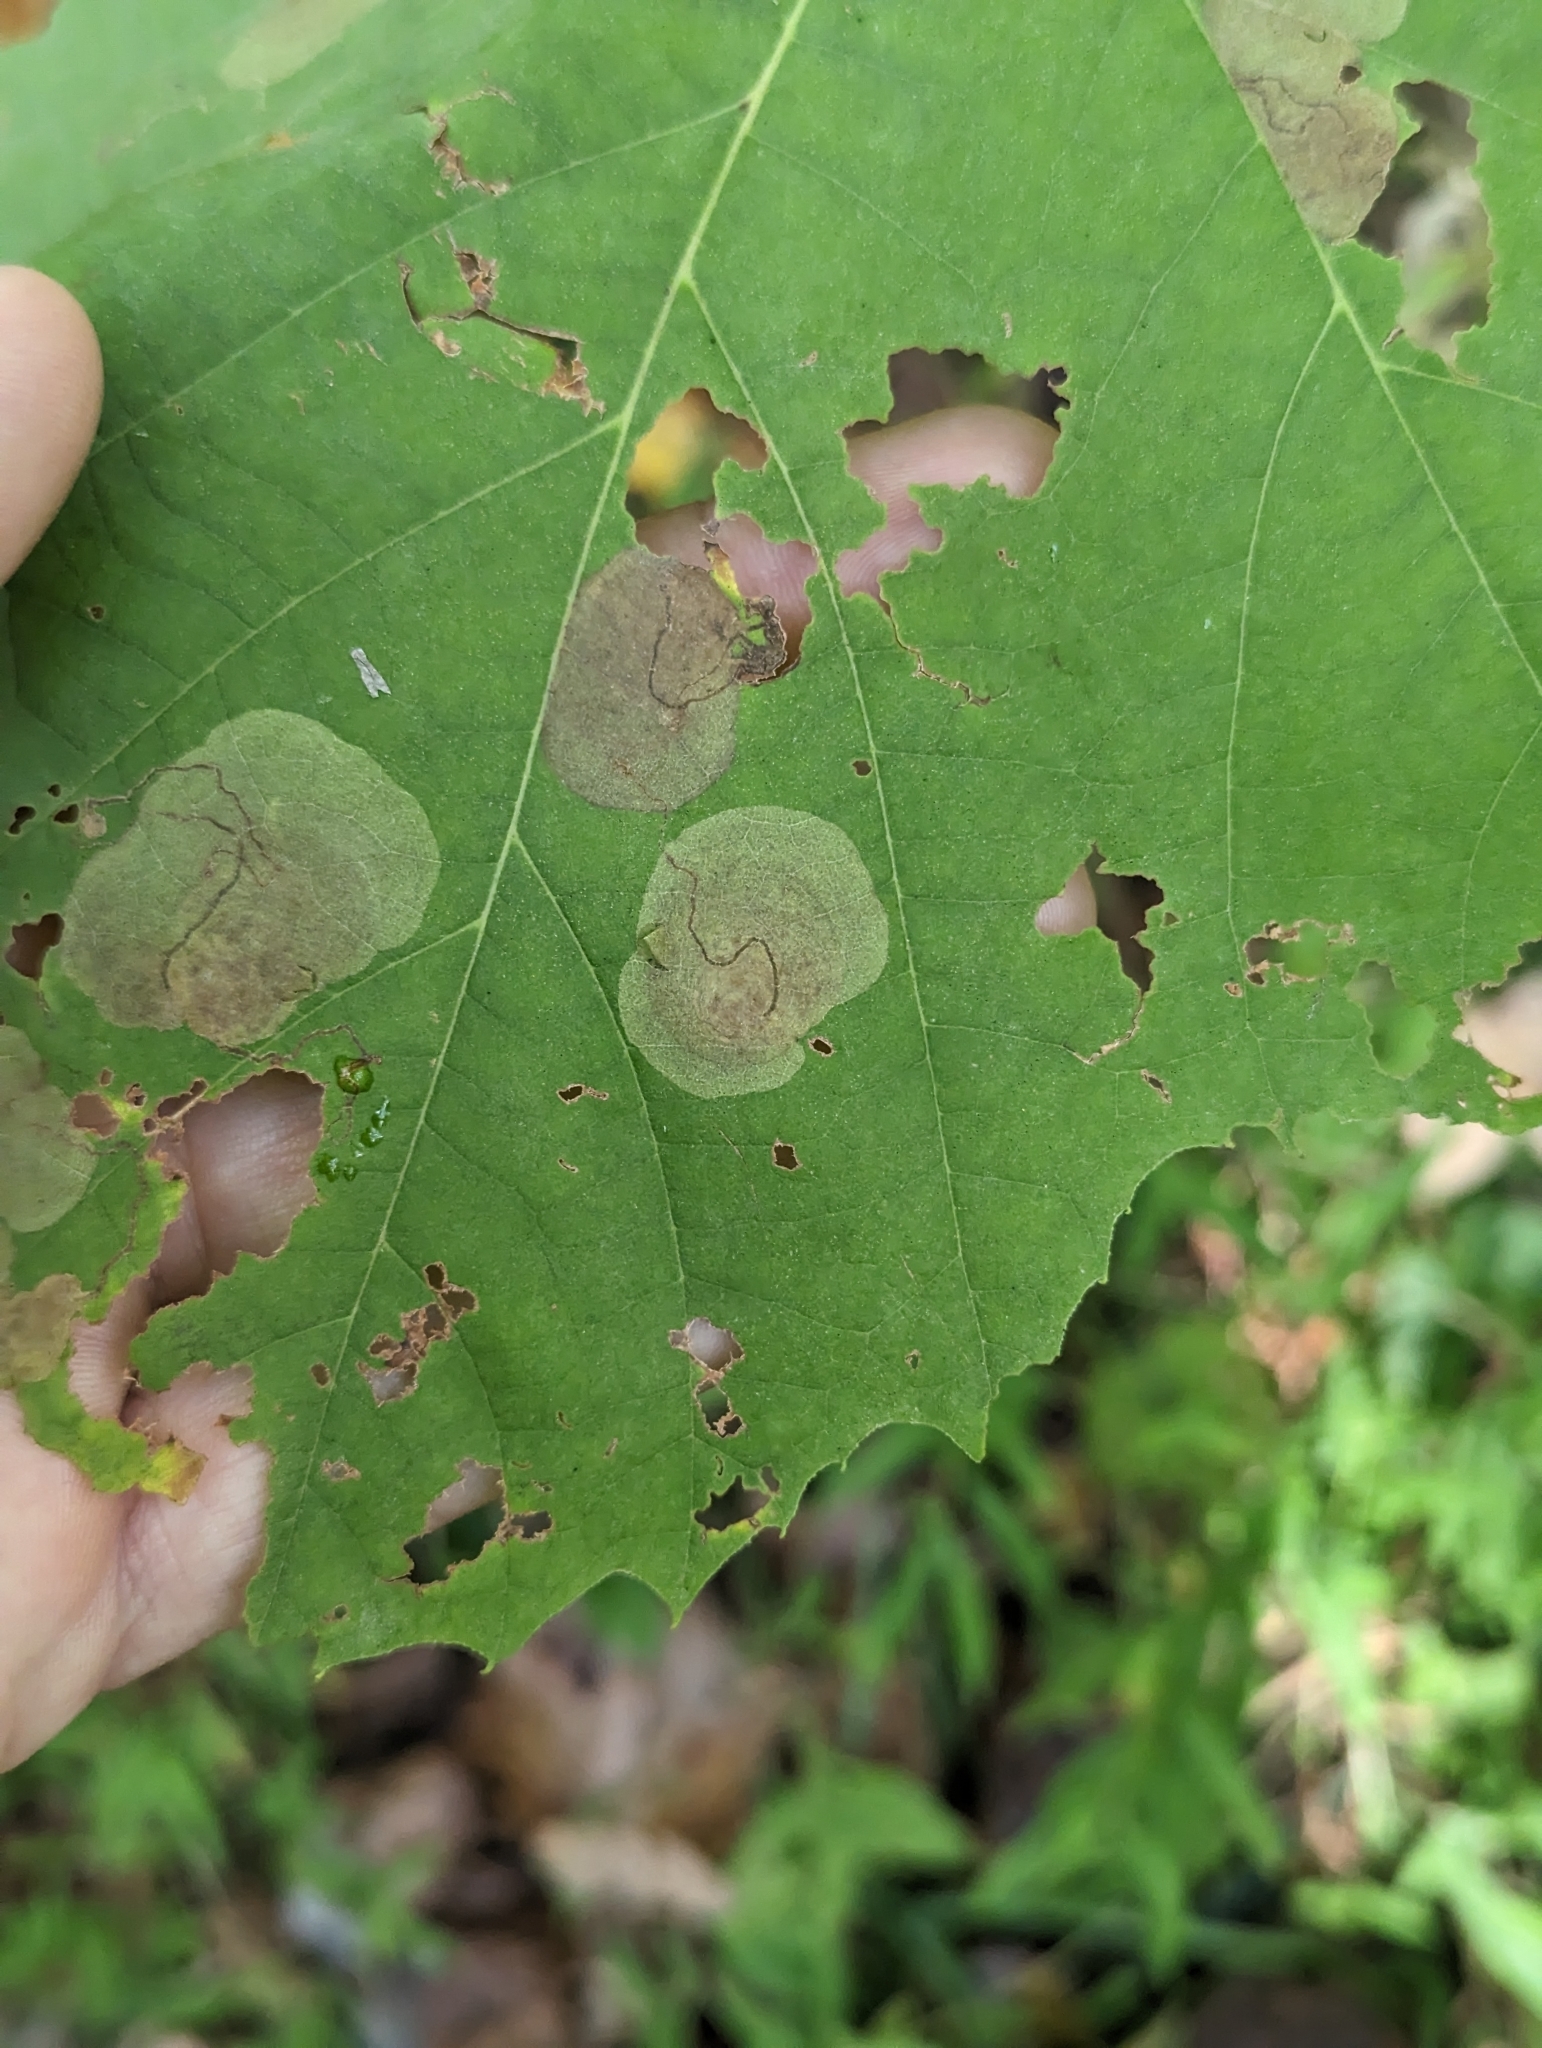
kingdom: Animalia
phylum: Arthropoda
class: Insecta
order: Lepidoptera
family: Nepticulidae
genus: Ectoedemia
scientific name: Ectoedemia platanella
